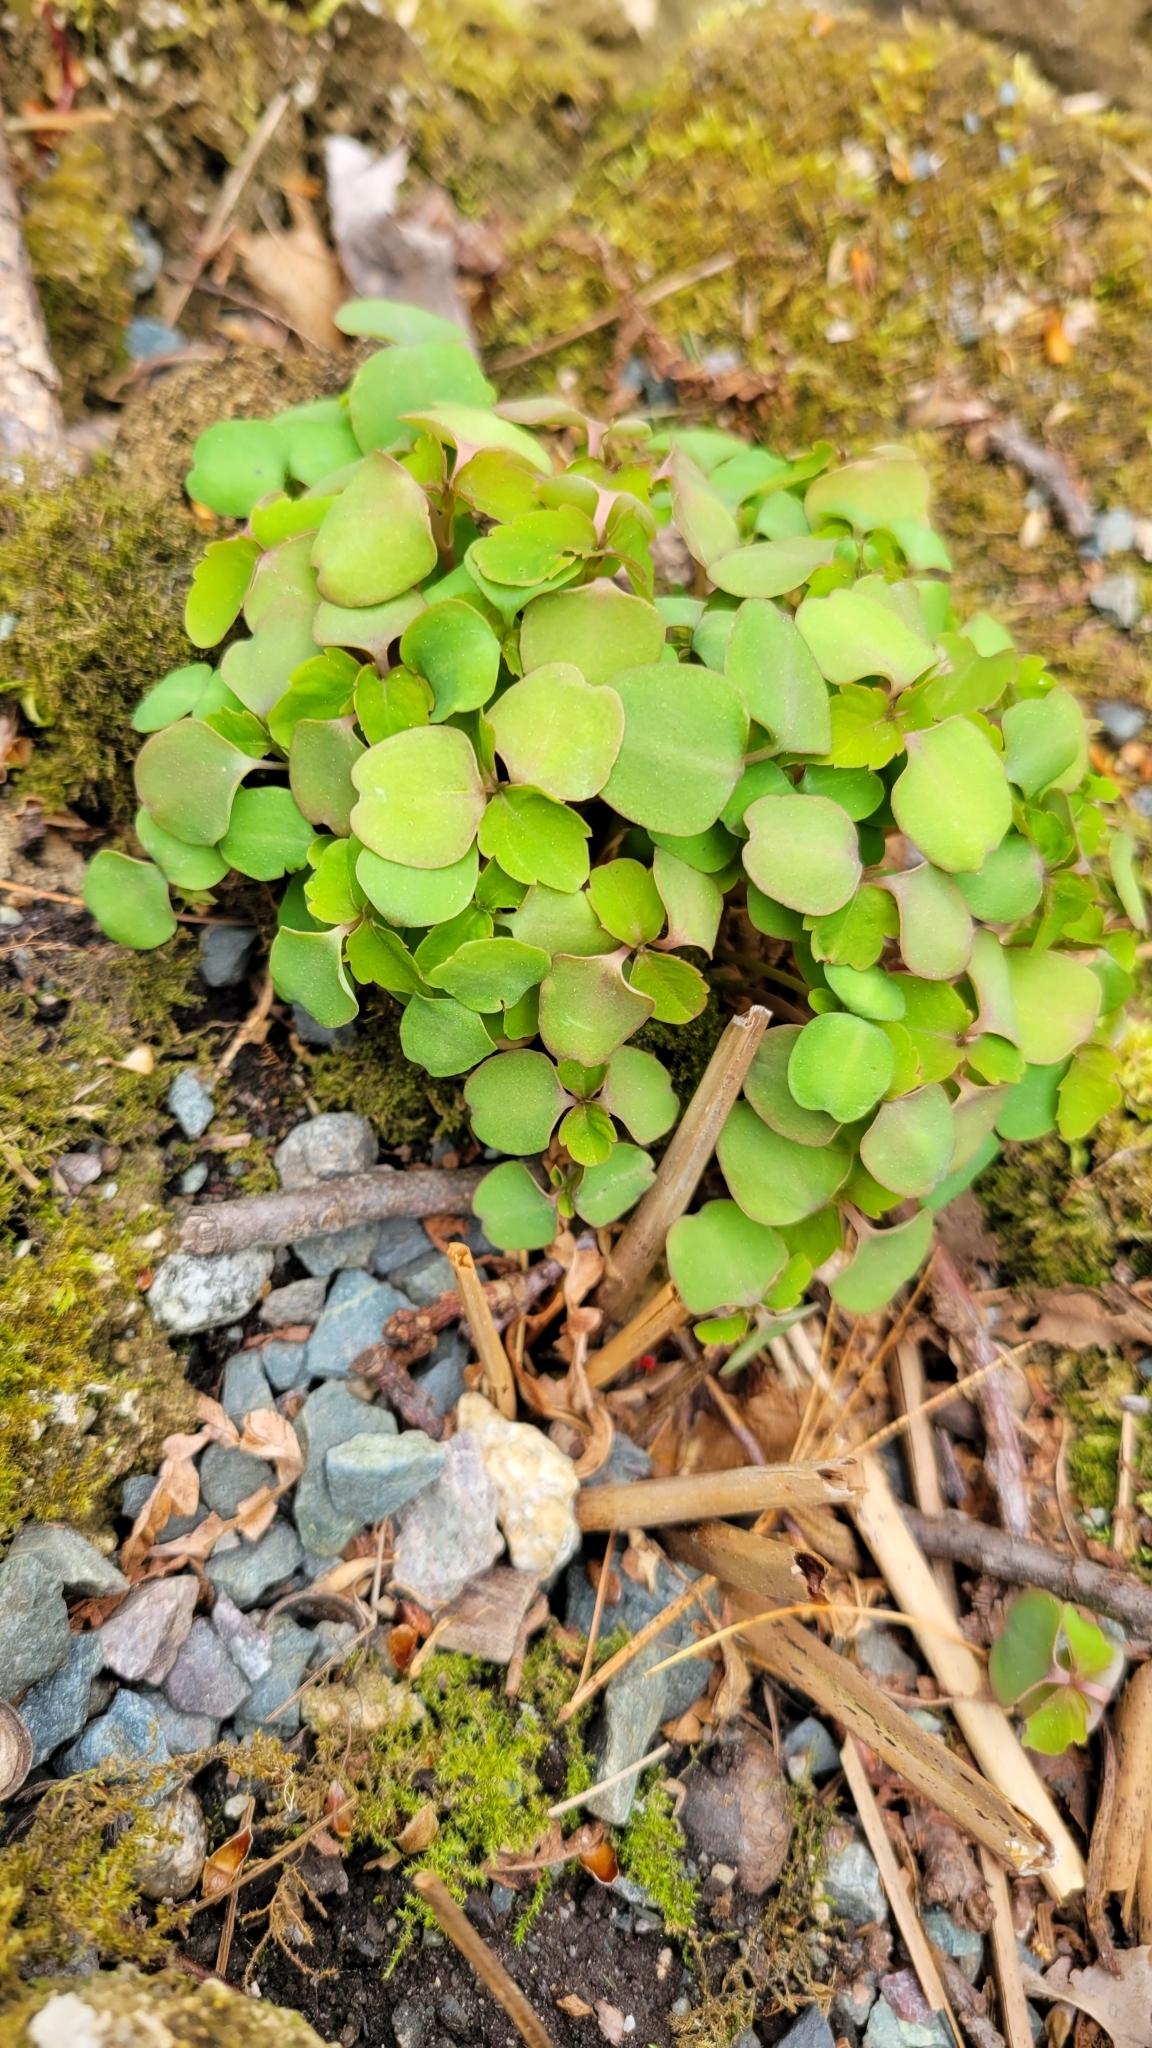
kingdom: Plantae
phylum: Tracheophyta
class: Magnoliopsida
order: Ericales
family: Balsaminaceae
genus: Impatiens
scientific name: Impatiens capensis
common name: Orange balsam
